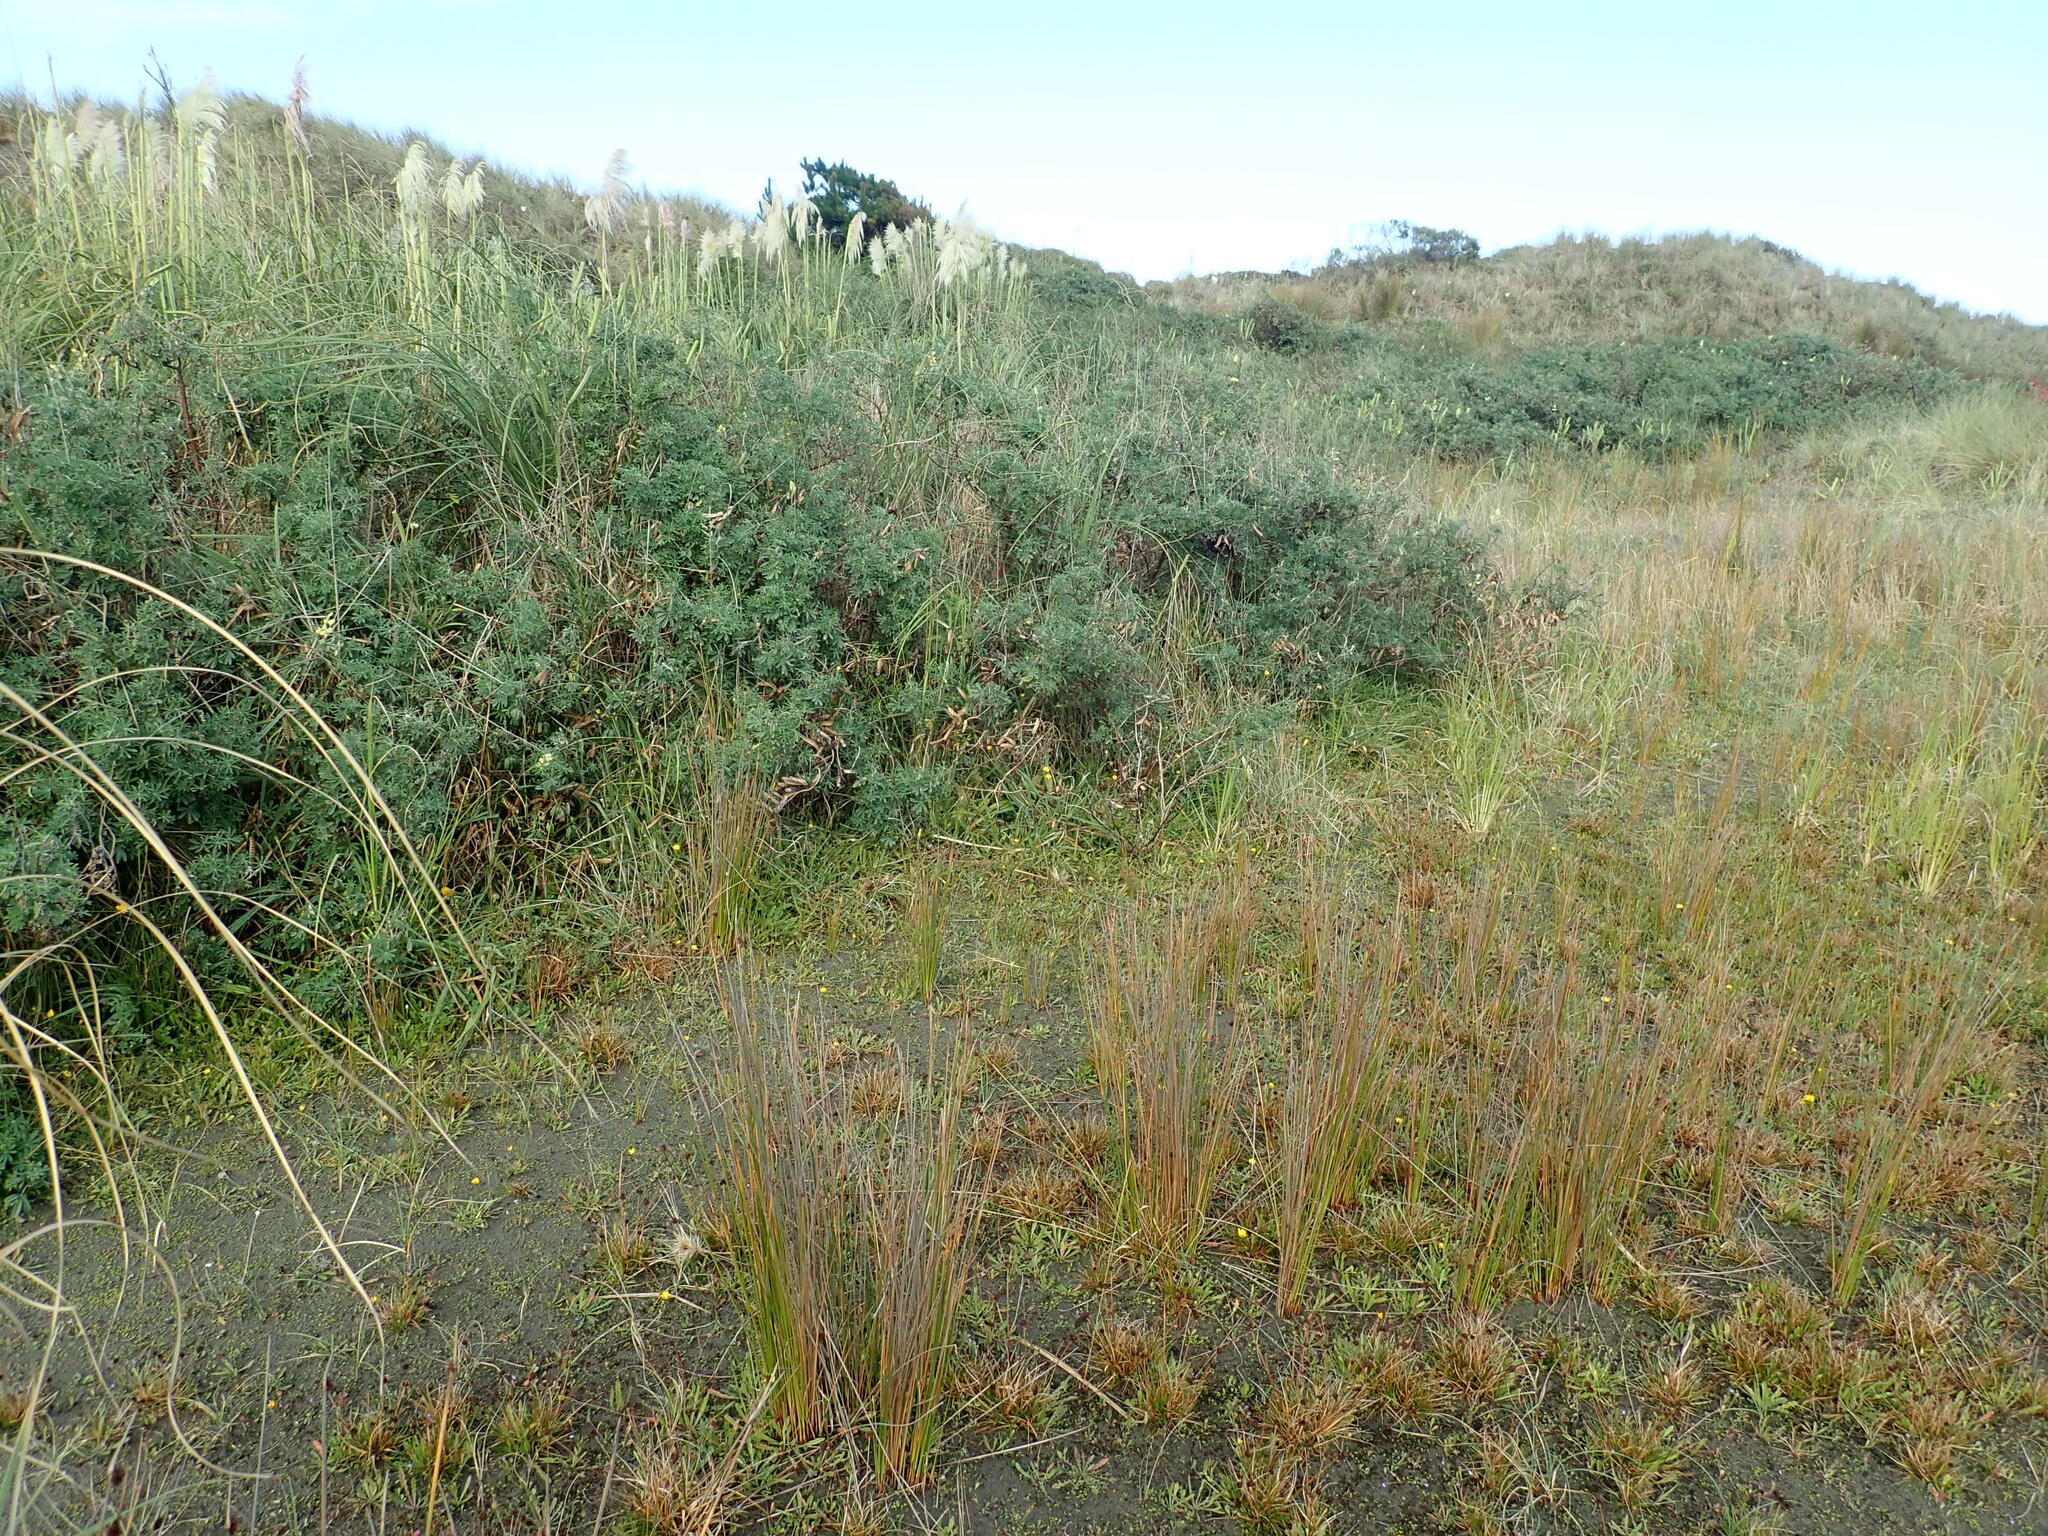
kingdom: Plantae
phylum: Tracheophyta
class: Magnoliopsida
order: Fabales
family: Fabaceae
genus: Lupinus
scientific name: Lupinus arboreus
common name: Yellow bush lupine
